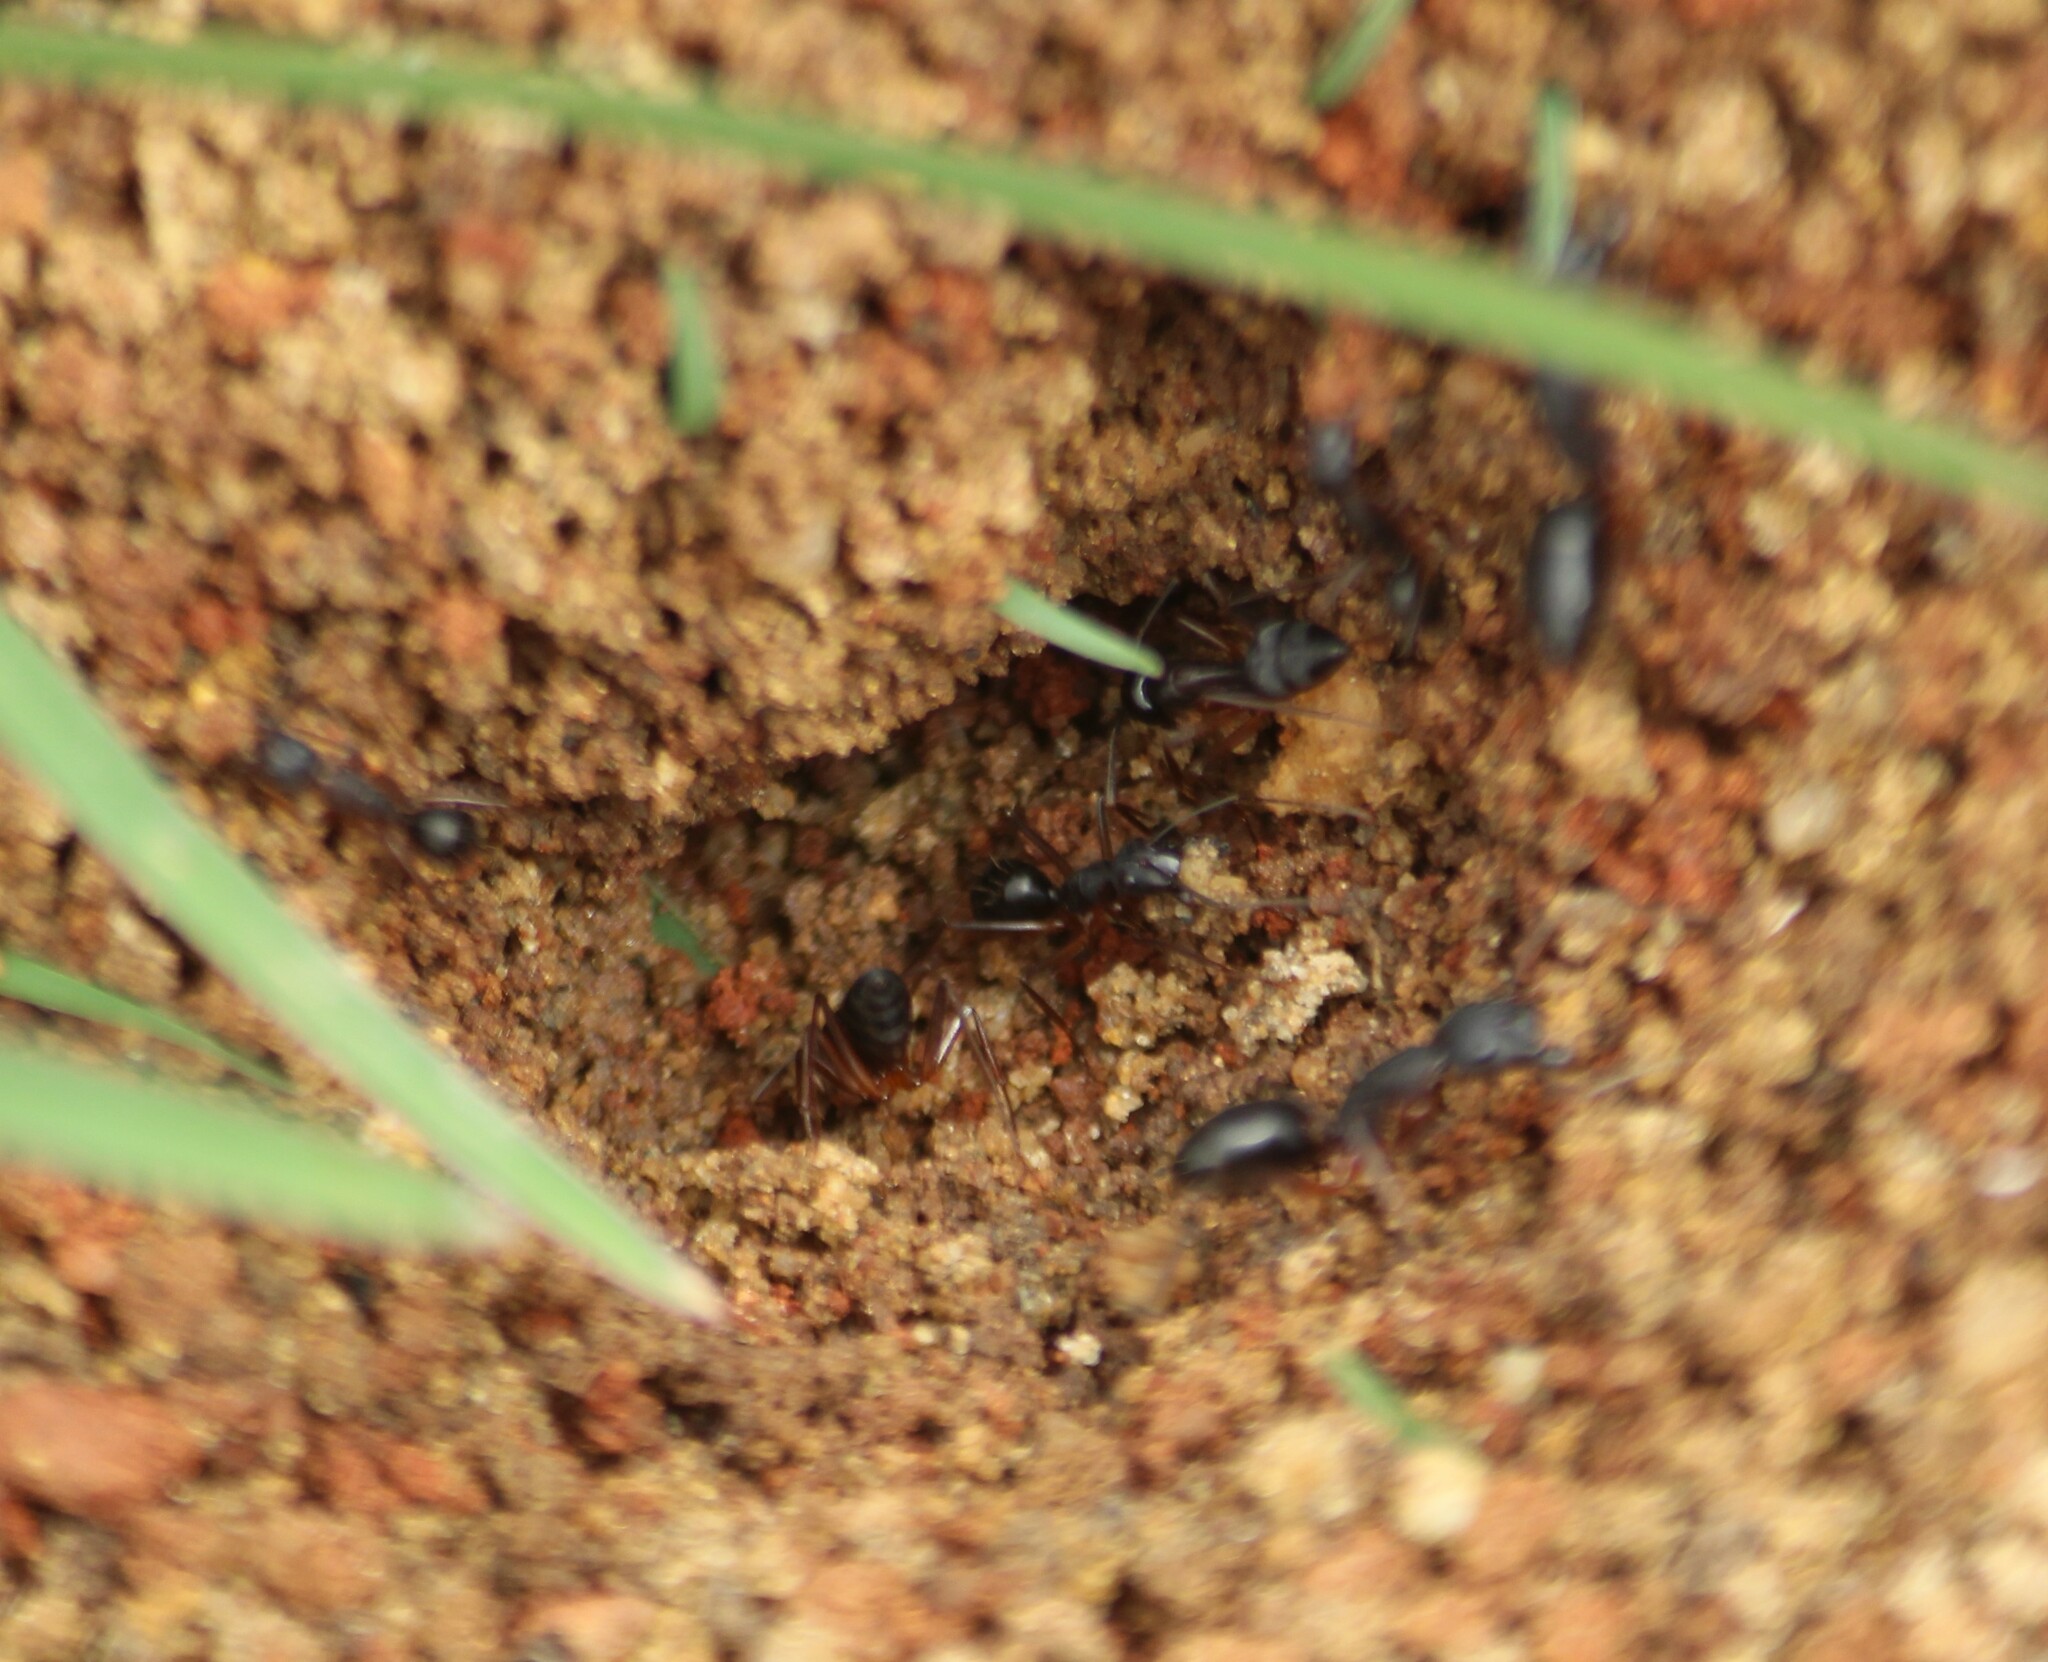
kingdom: Animalia
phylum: Arthropoda
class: Insecta
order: Hymenoptera
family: Formicidae
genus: Camponotus
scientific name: Camponotus compressus
